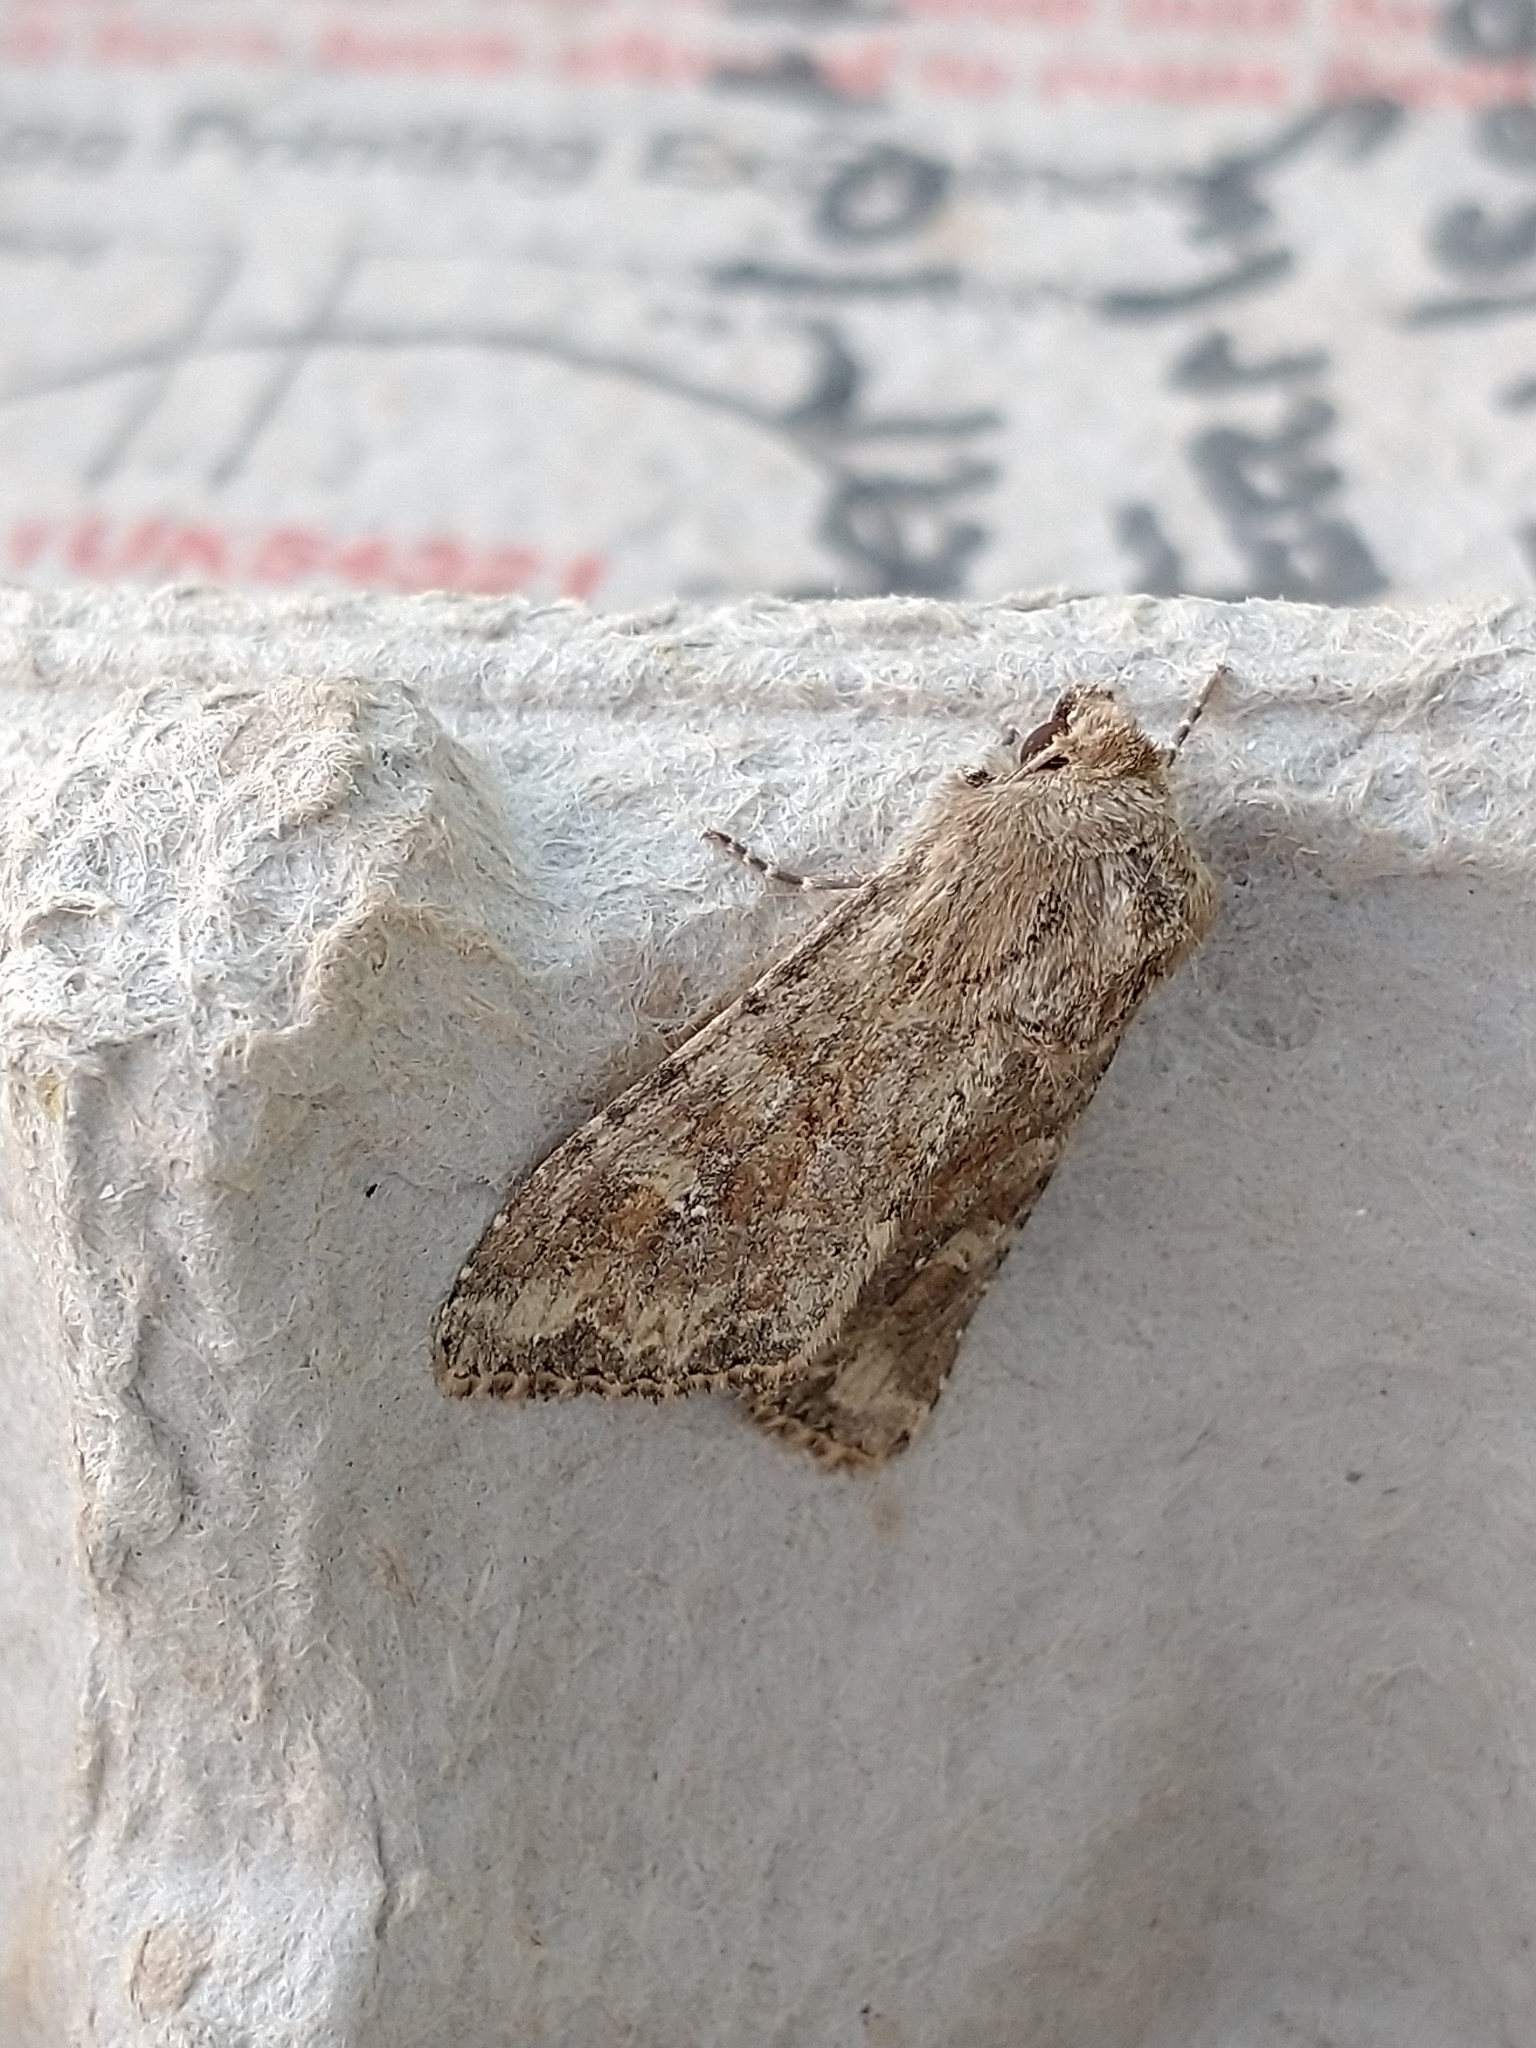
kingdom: Animalia
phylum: Arthropoda
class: Insecta
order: Lepidoptera
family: Noctuidae
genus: Apamea
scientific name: Apamea anceps
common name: Large nutmeg
